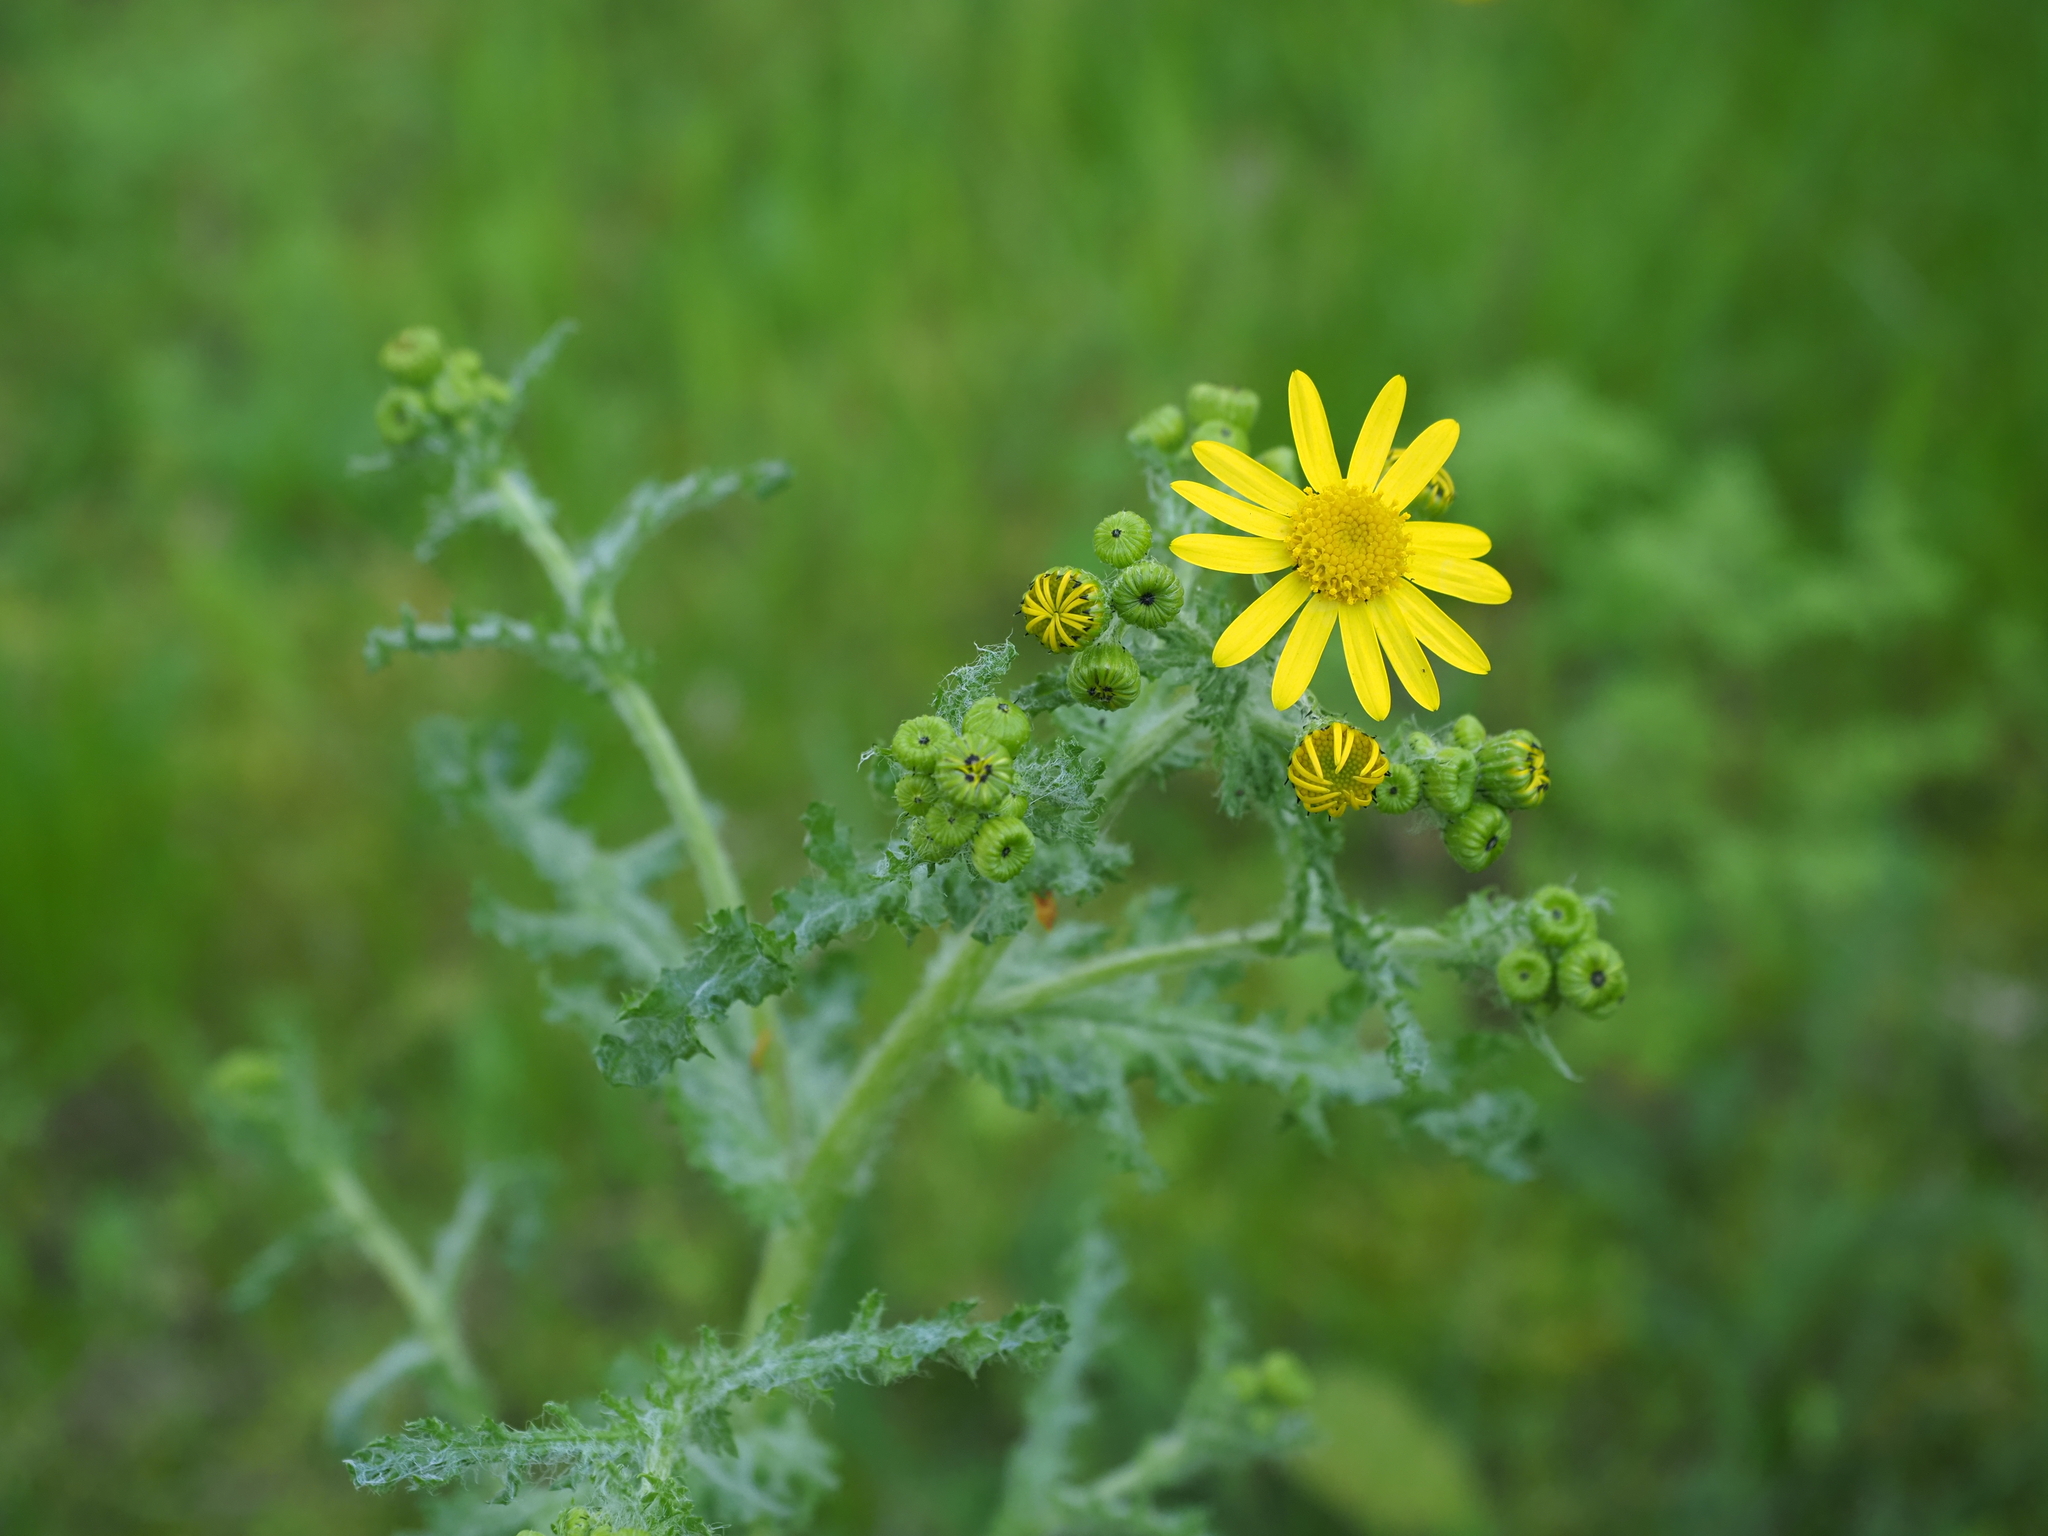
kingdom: Plantae
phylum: Tracheophyta
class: Magnoliopsida
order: Asterales
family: Asteraceae
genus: Senecio
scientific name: Senecio vernalis
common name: Eastern groundsel
